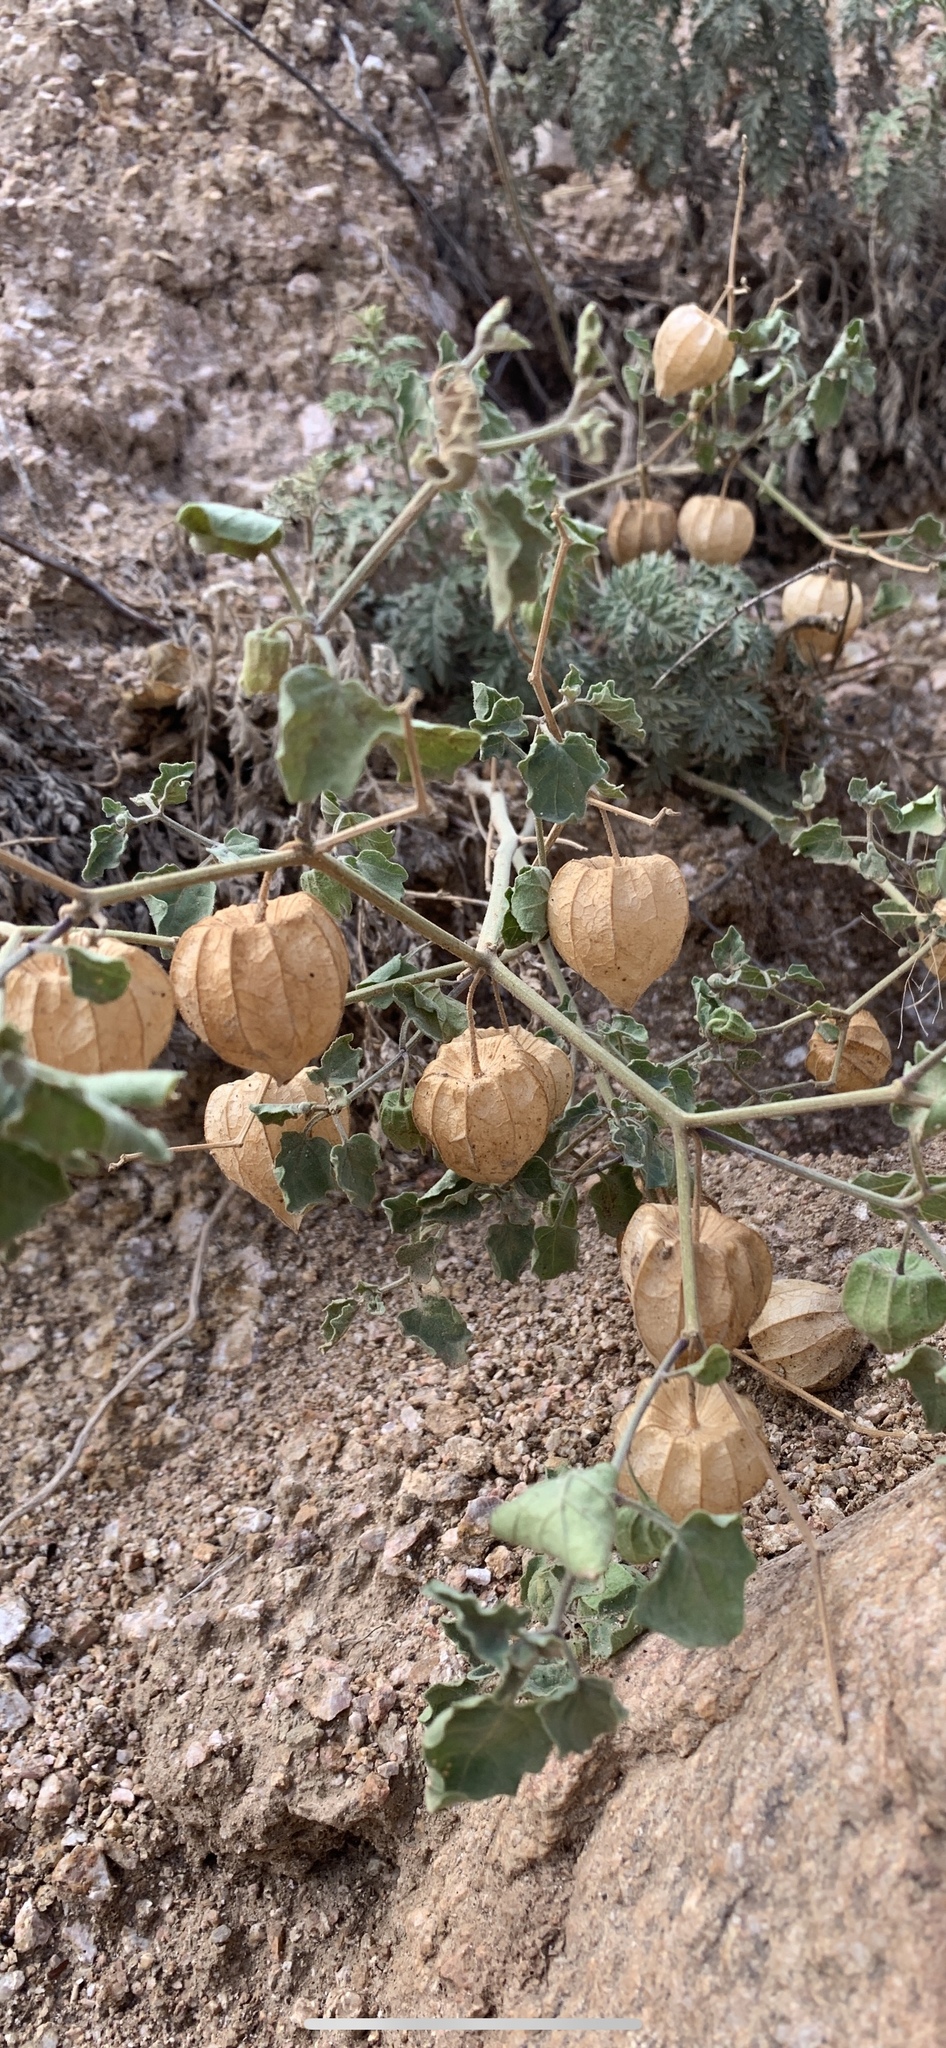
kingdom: Plantae
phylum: Tracheophyta
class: Magnoliopsida
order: Solanales
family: Solanaceae
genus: Physalis
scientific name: Physalis hederifolia
